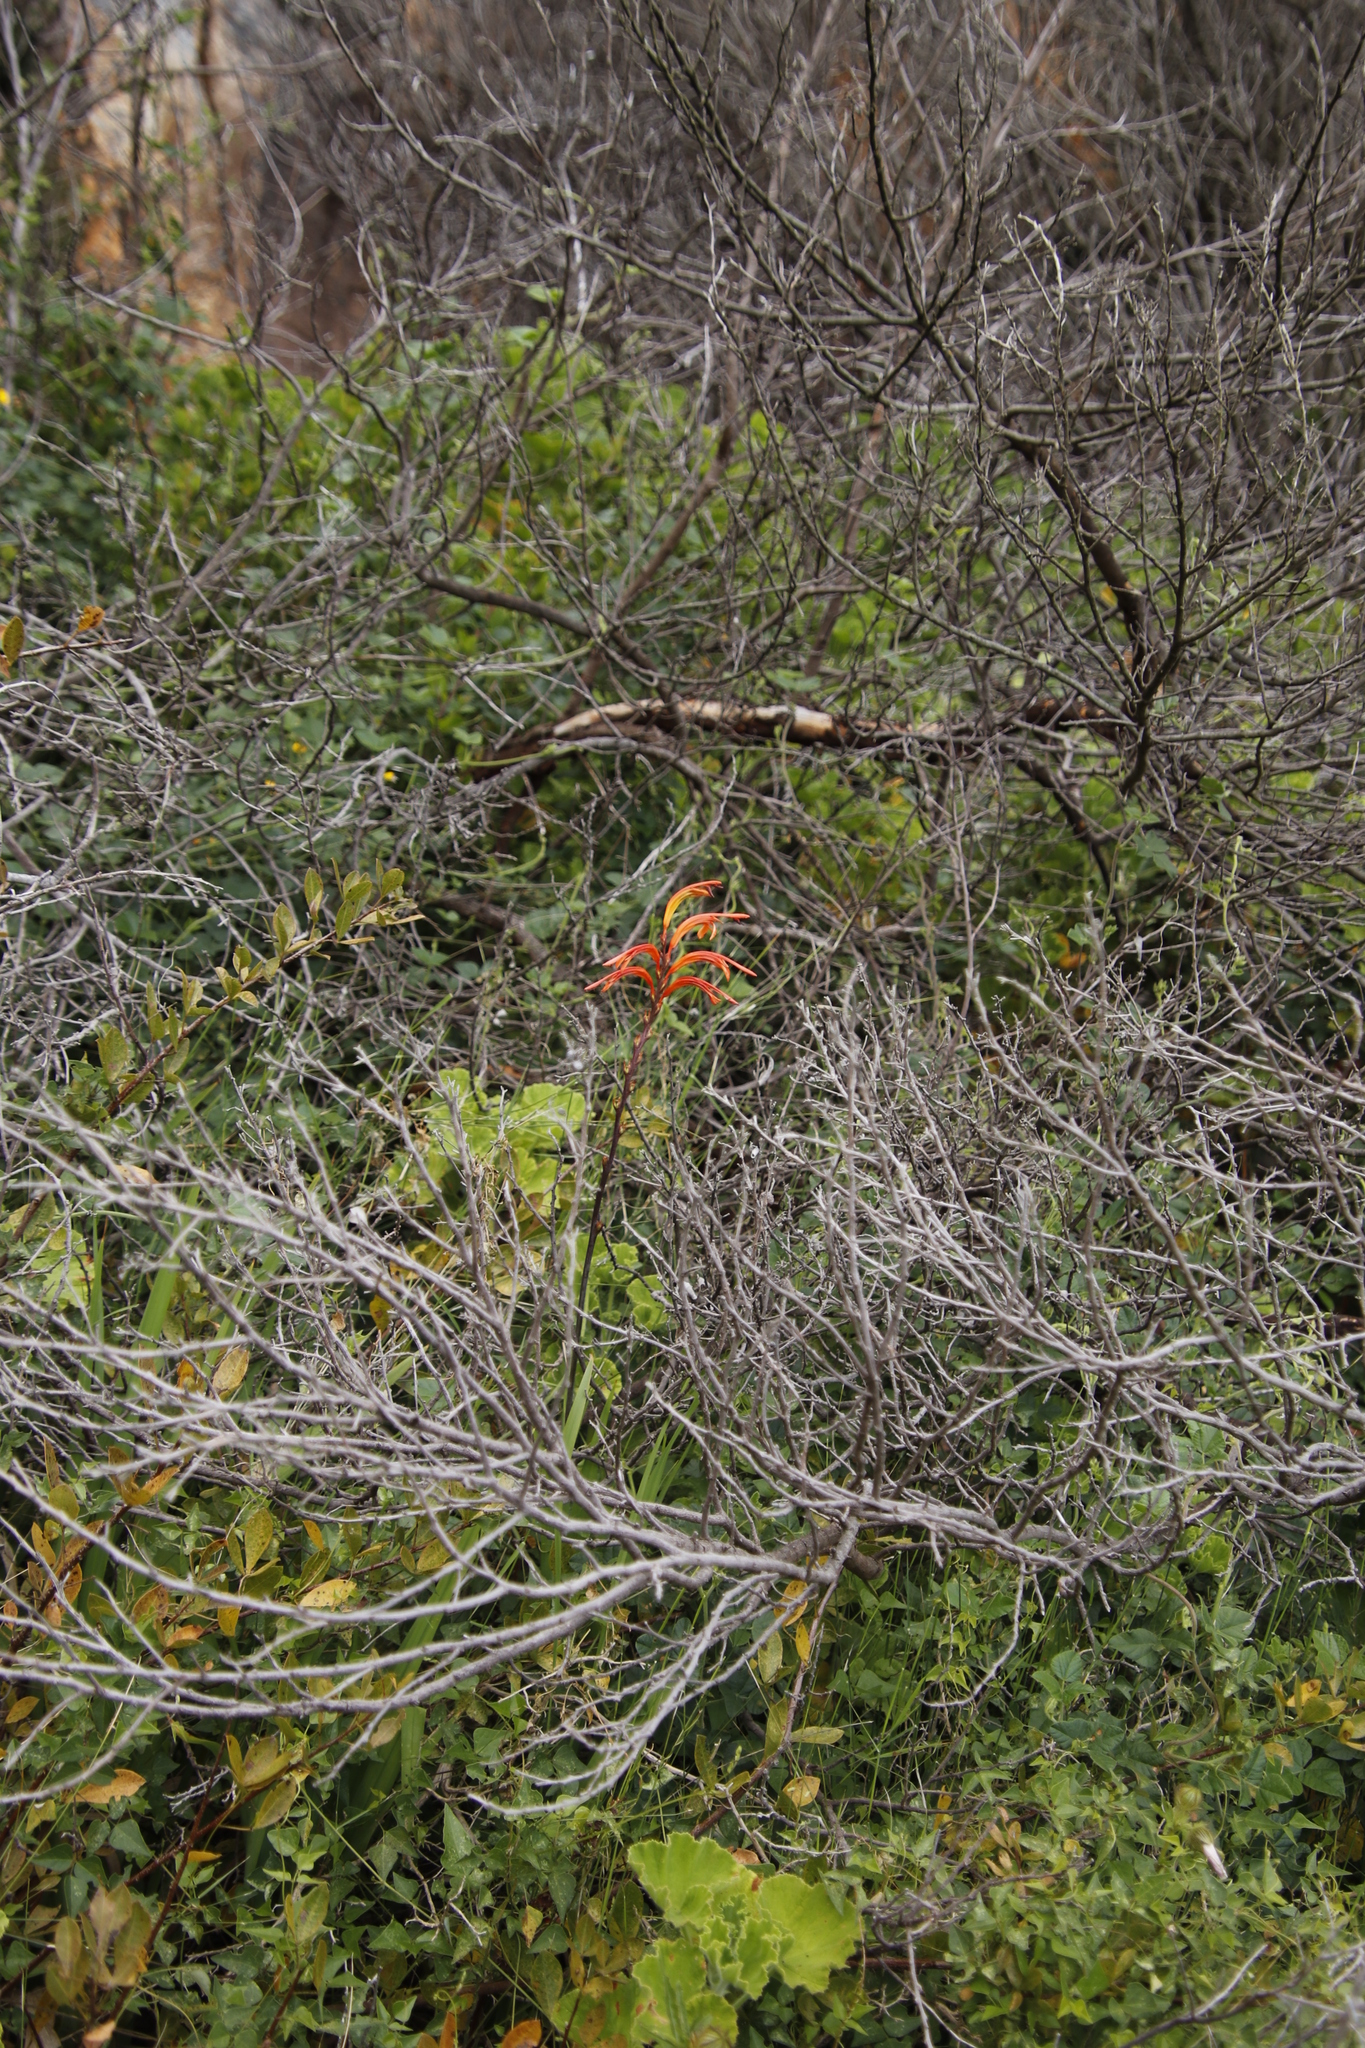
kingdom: Plantae
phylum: Tracheophyta
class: Liliopsida
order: Asparagales
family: Iridaceae
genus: Chasmanthe
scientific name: Chasmanthe floribunda
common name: African cornflag
